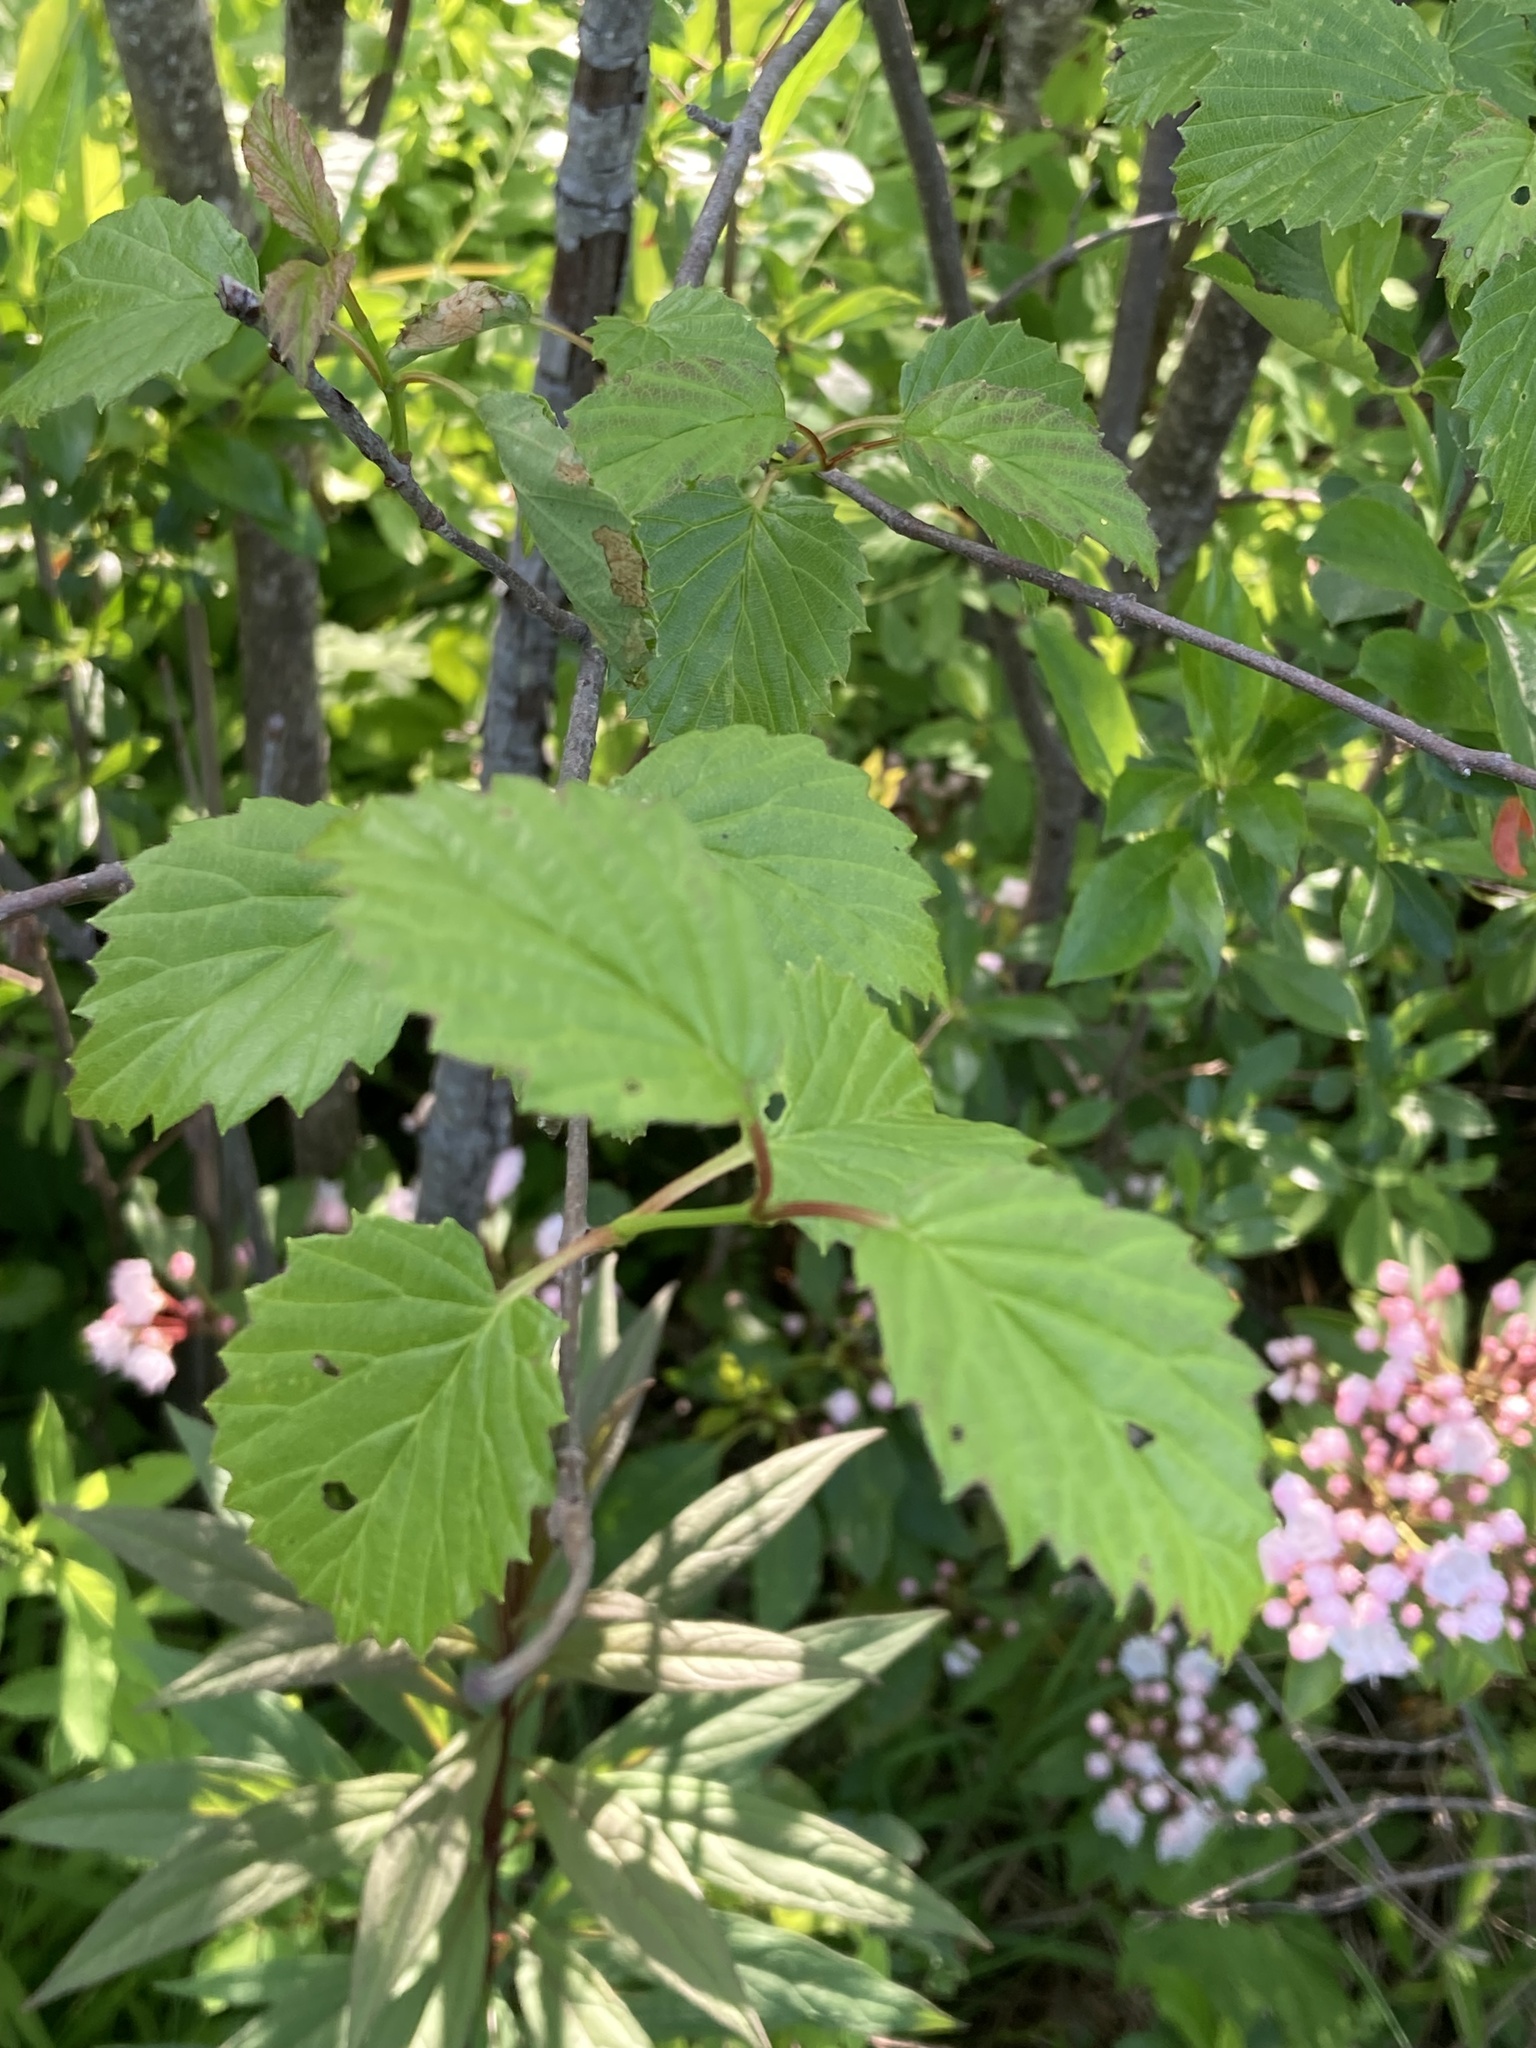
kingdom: Plantae
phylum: Tracheophyta
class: Magnoliopsida
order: Dipsacales
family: Viburnaceae
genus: Viburnum
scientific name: Viburnum recognitum
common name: Northern arrow-wood
